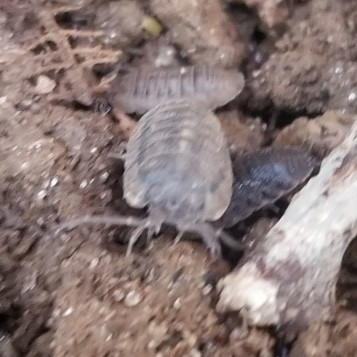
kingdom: Animalia
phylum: Arthropoda
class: Malacostraca
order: Isopoda
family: Armadillidiidae
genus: Armadillidium
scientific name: Armadillidium nasatum
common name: Isopod
